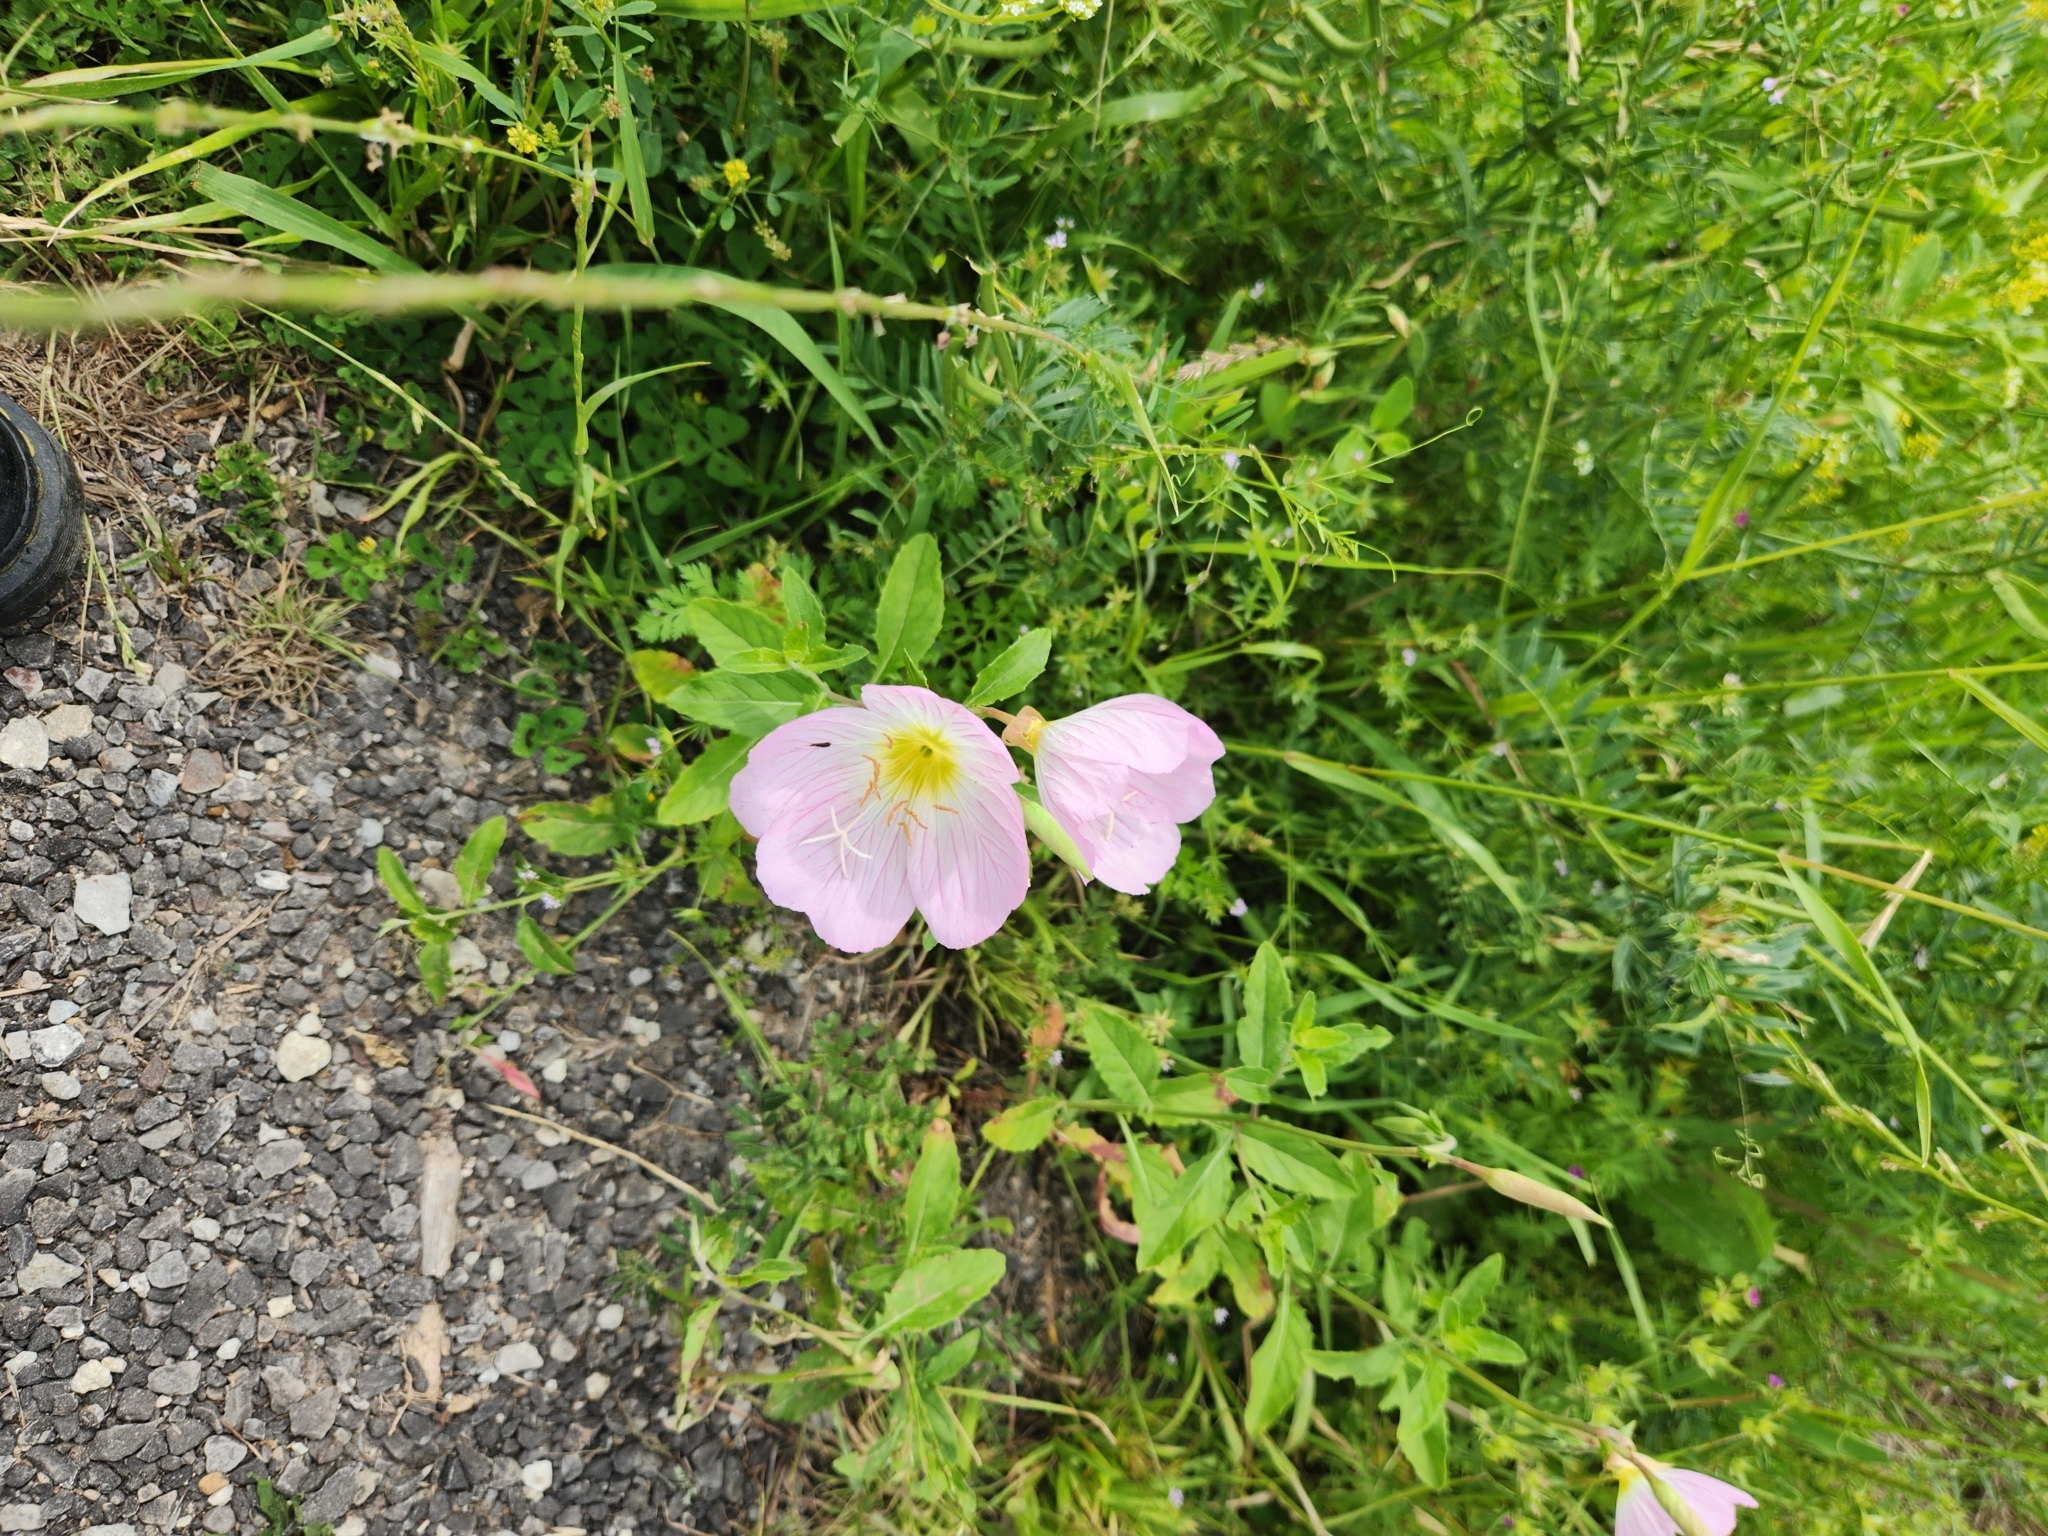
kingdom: Plantae
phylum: Tracheophyta
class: Magnoliopsida
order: Myrtales
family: Onagraceae
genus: Oenothera
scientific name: Oenothera speciosa
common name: White evening-primrose
